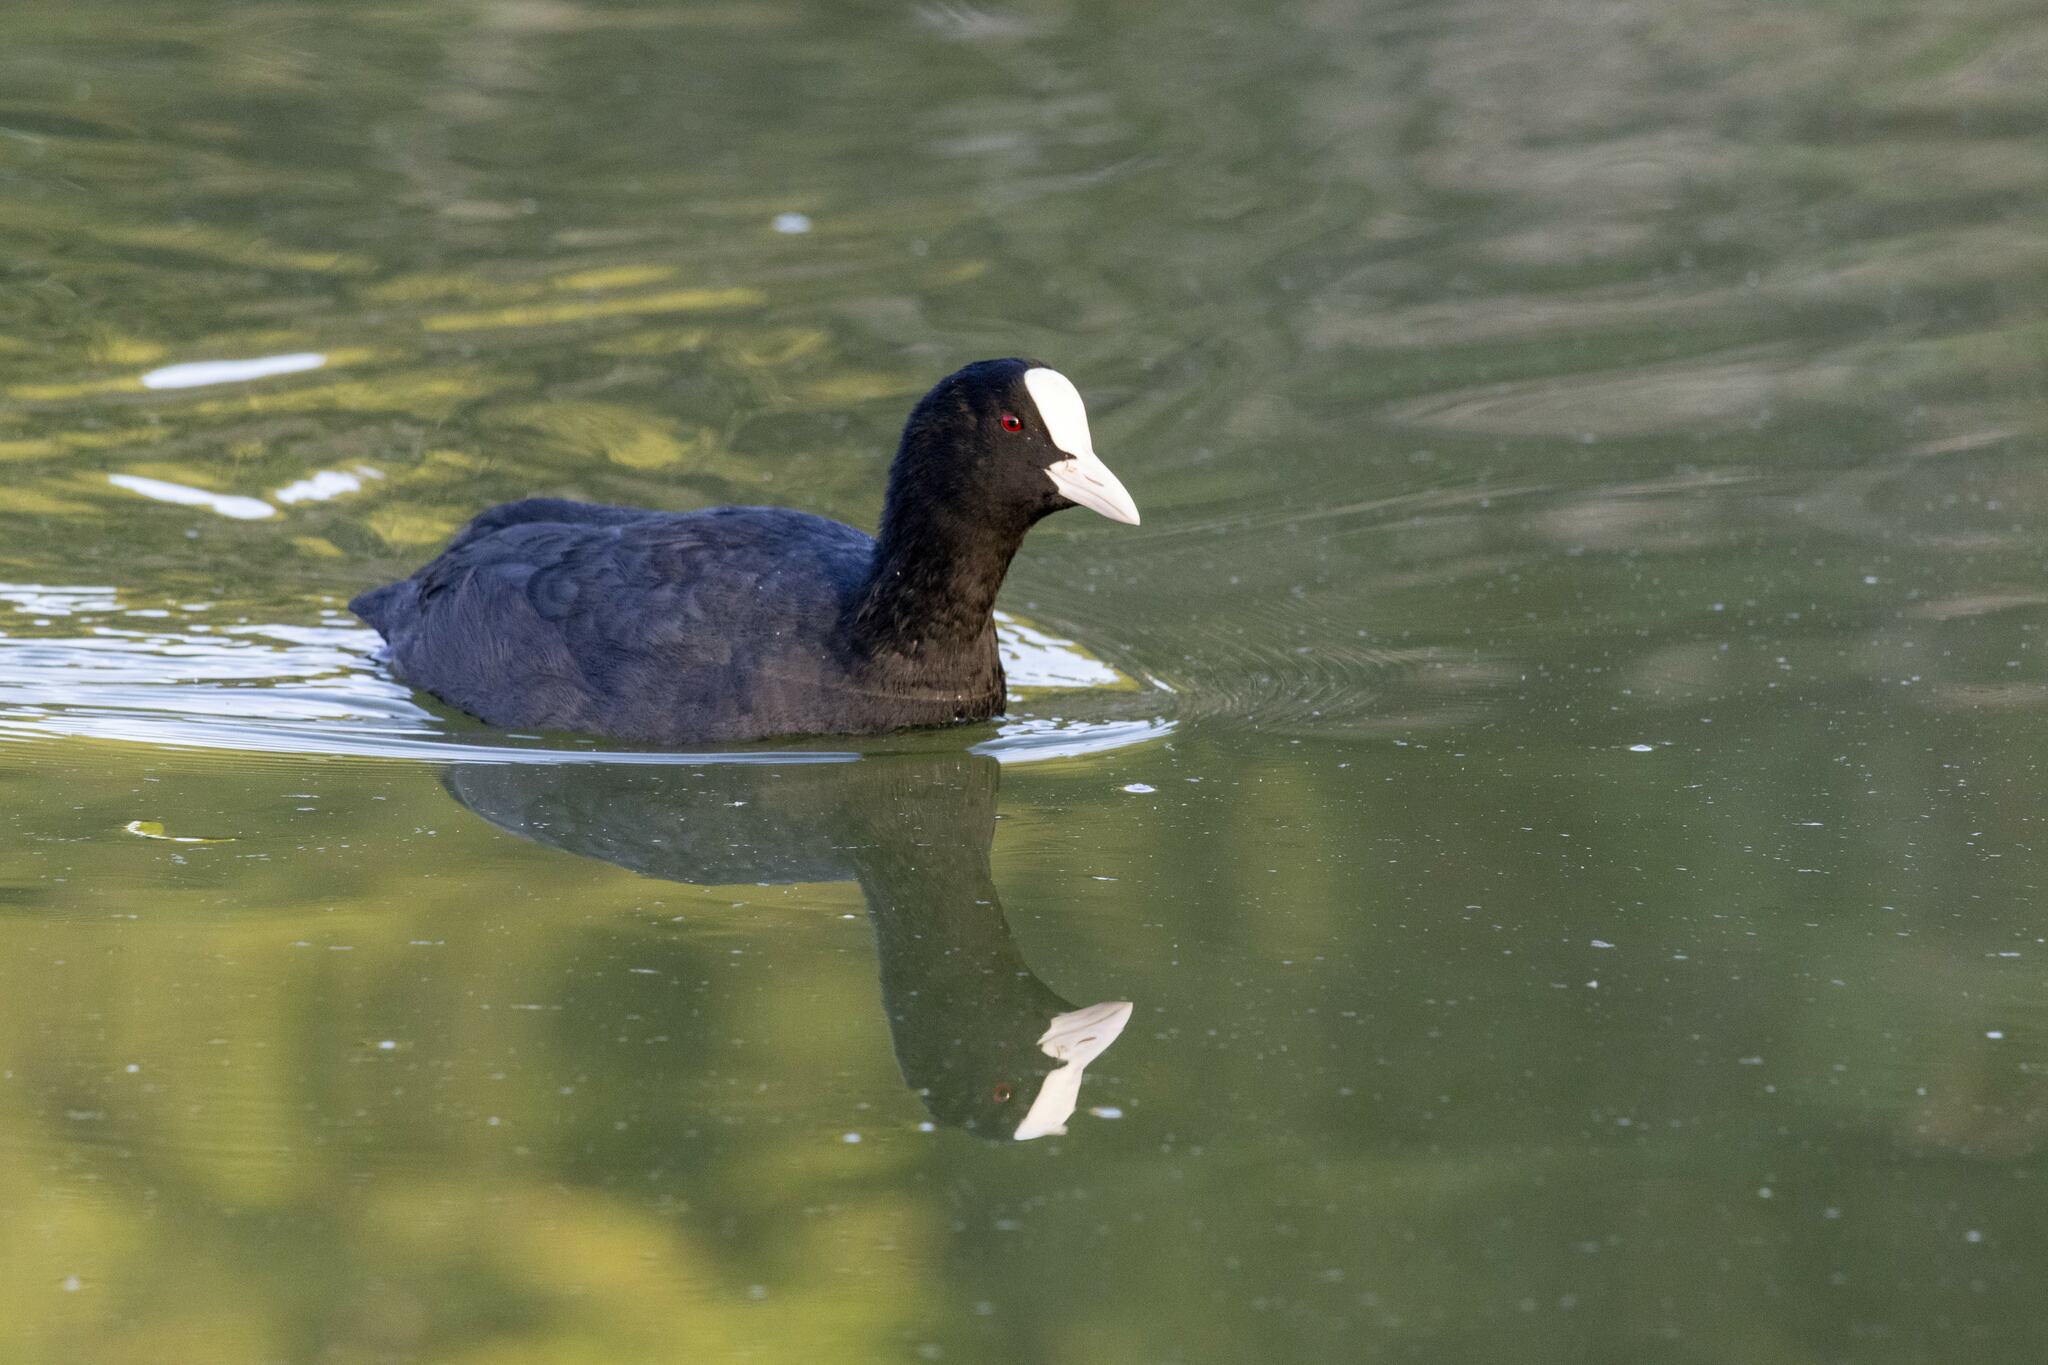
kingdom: Animalia
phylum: Chordata
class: Aves
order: Gruiformes
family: Rallidae
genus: Fulica
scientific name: Fulica atra
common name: Eurasian coot
